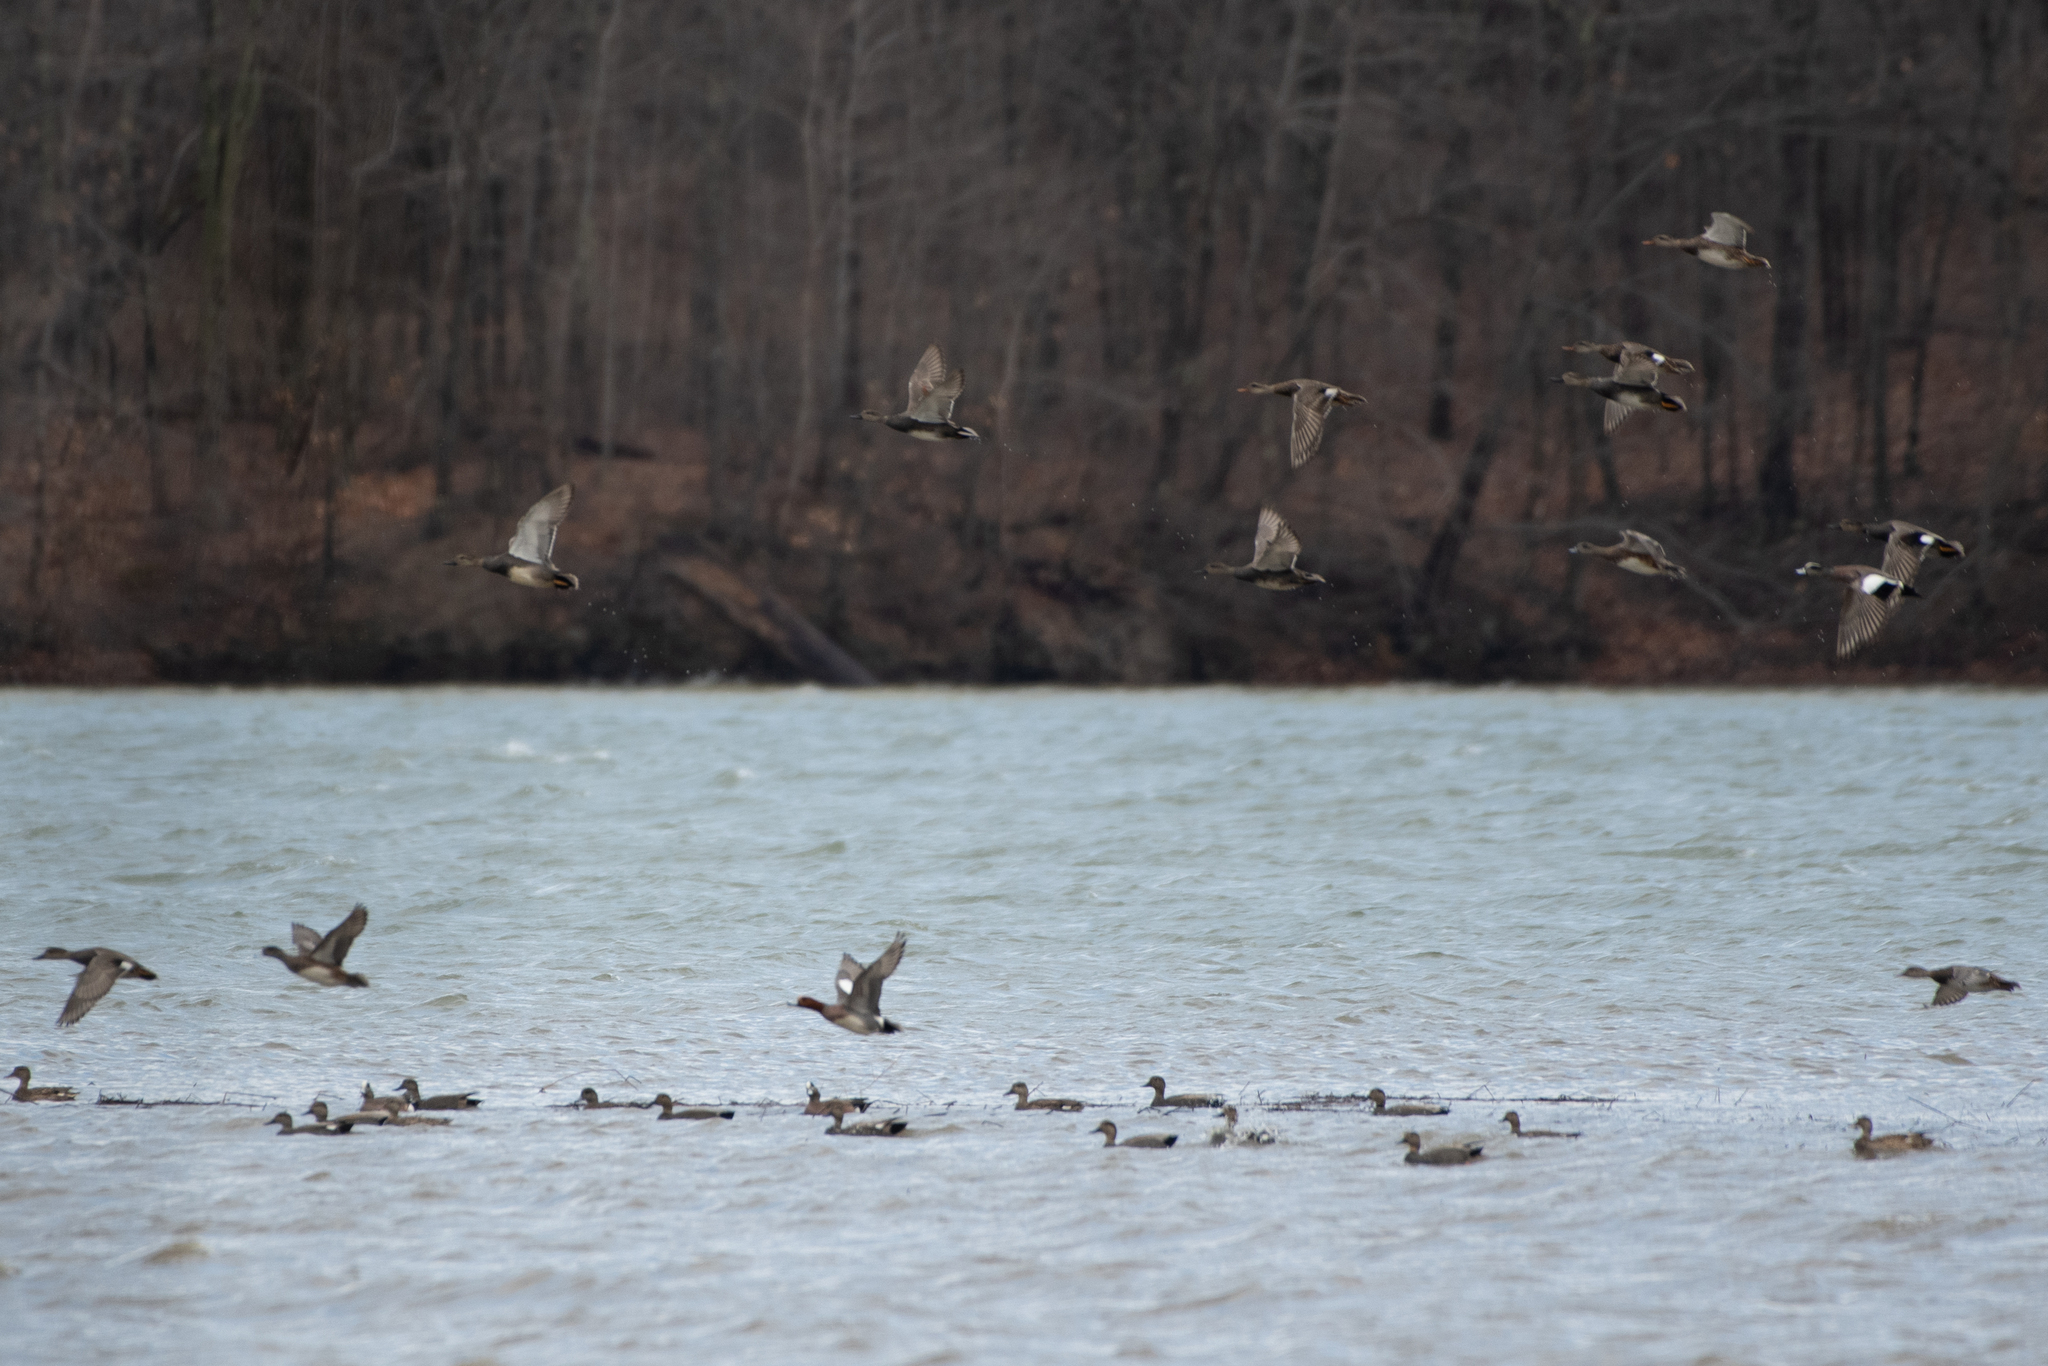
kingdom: Animalia
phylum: Chordata
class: Aves
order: Anseriformes
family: Anatidae
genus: Mareca
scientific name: Mareca strepera
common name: Gadwall
